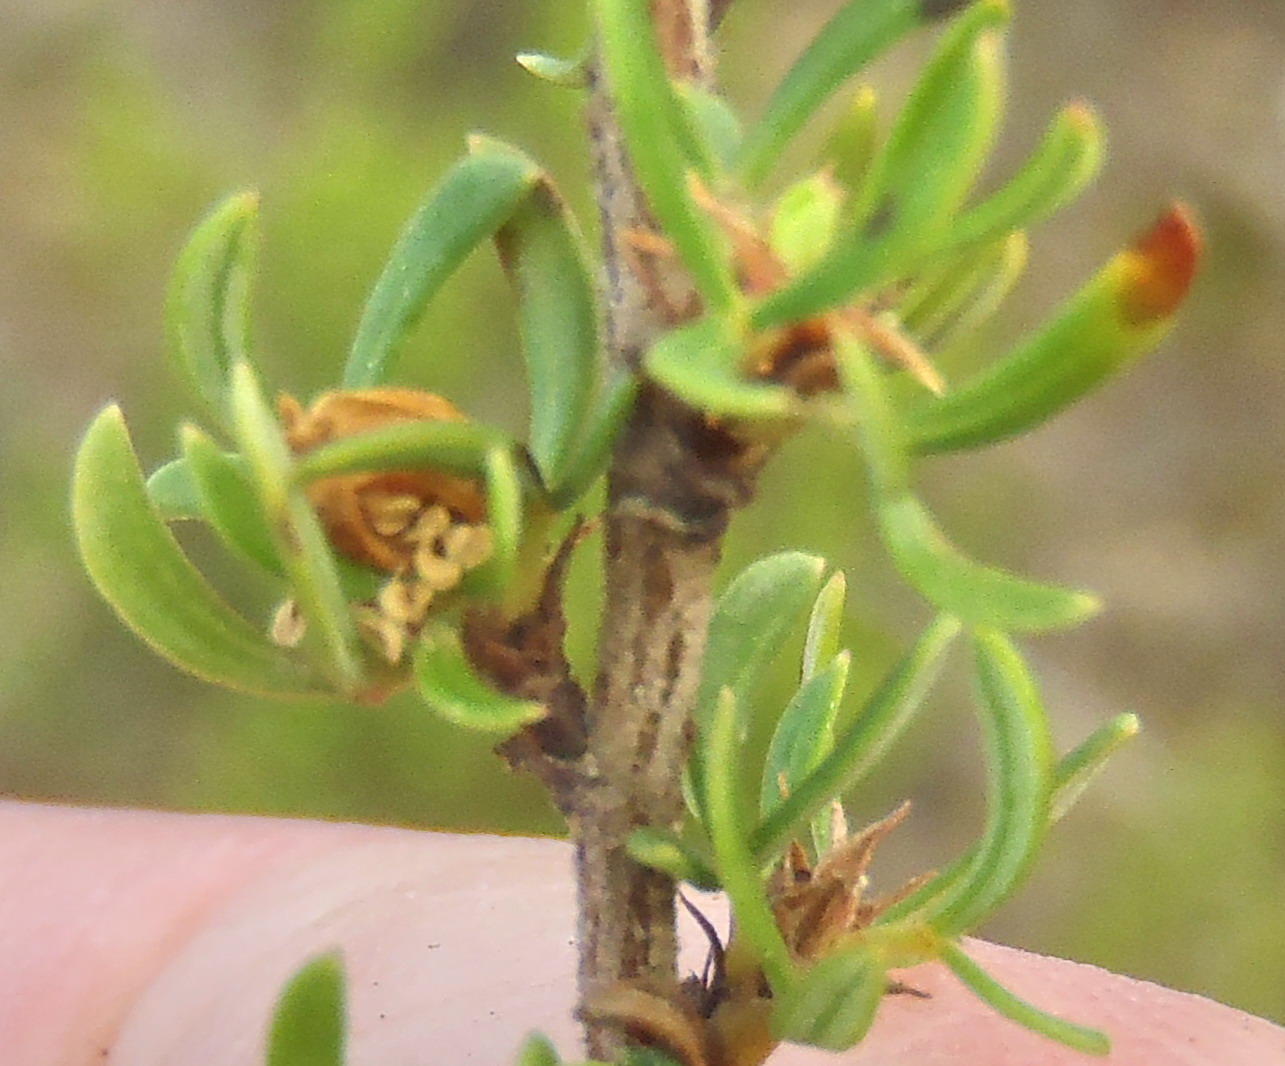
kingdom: Plantae
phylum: Tracheophyta
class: Magnoliopsida
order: Rosales
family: Rosaceae
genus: Cliffortia
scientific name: Cliffortia falcata
